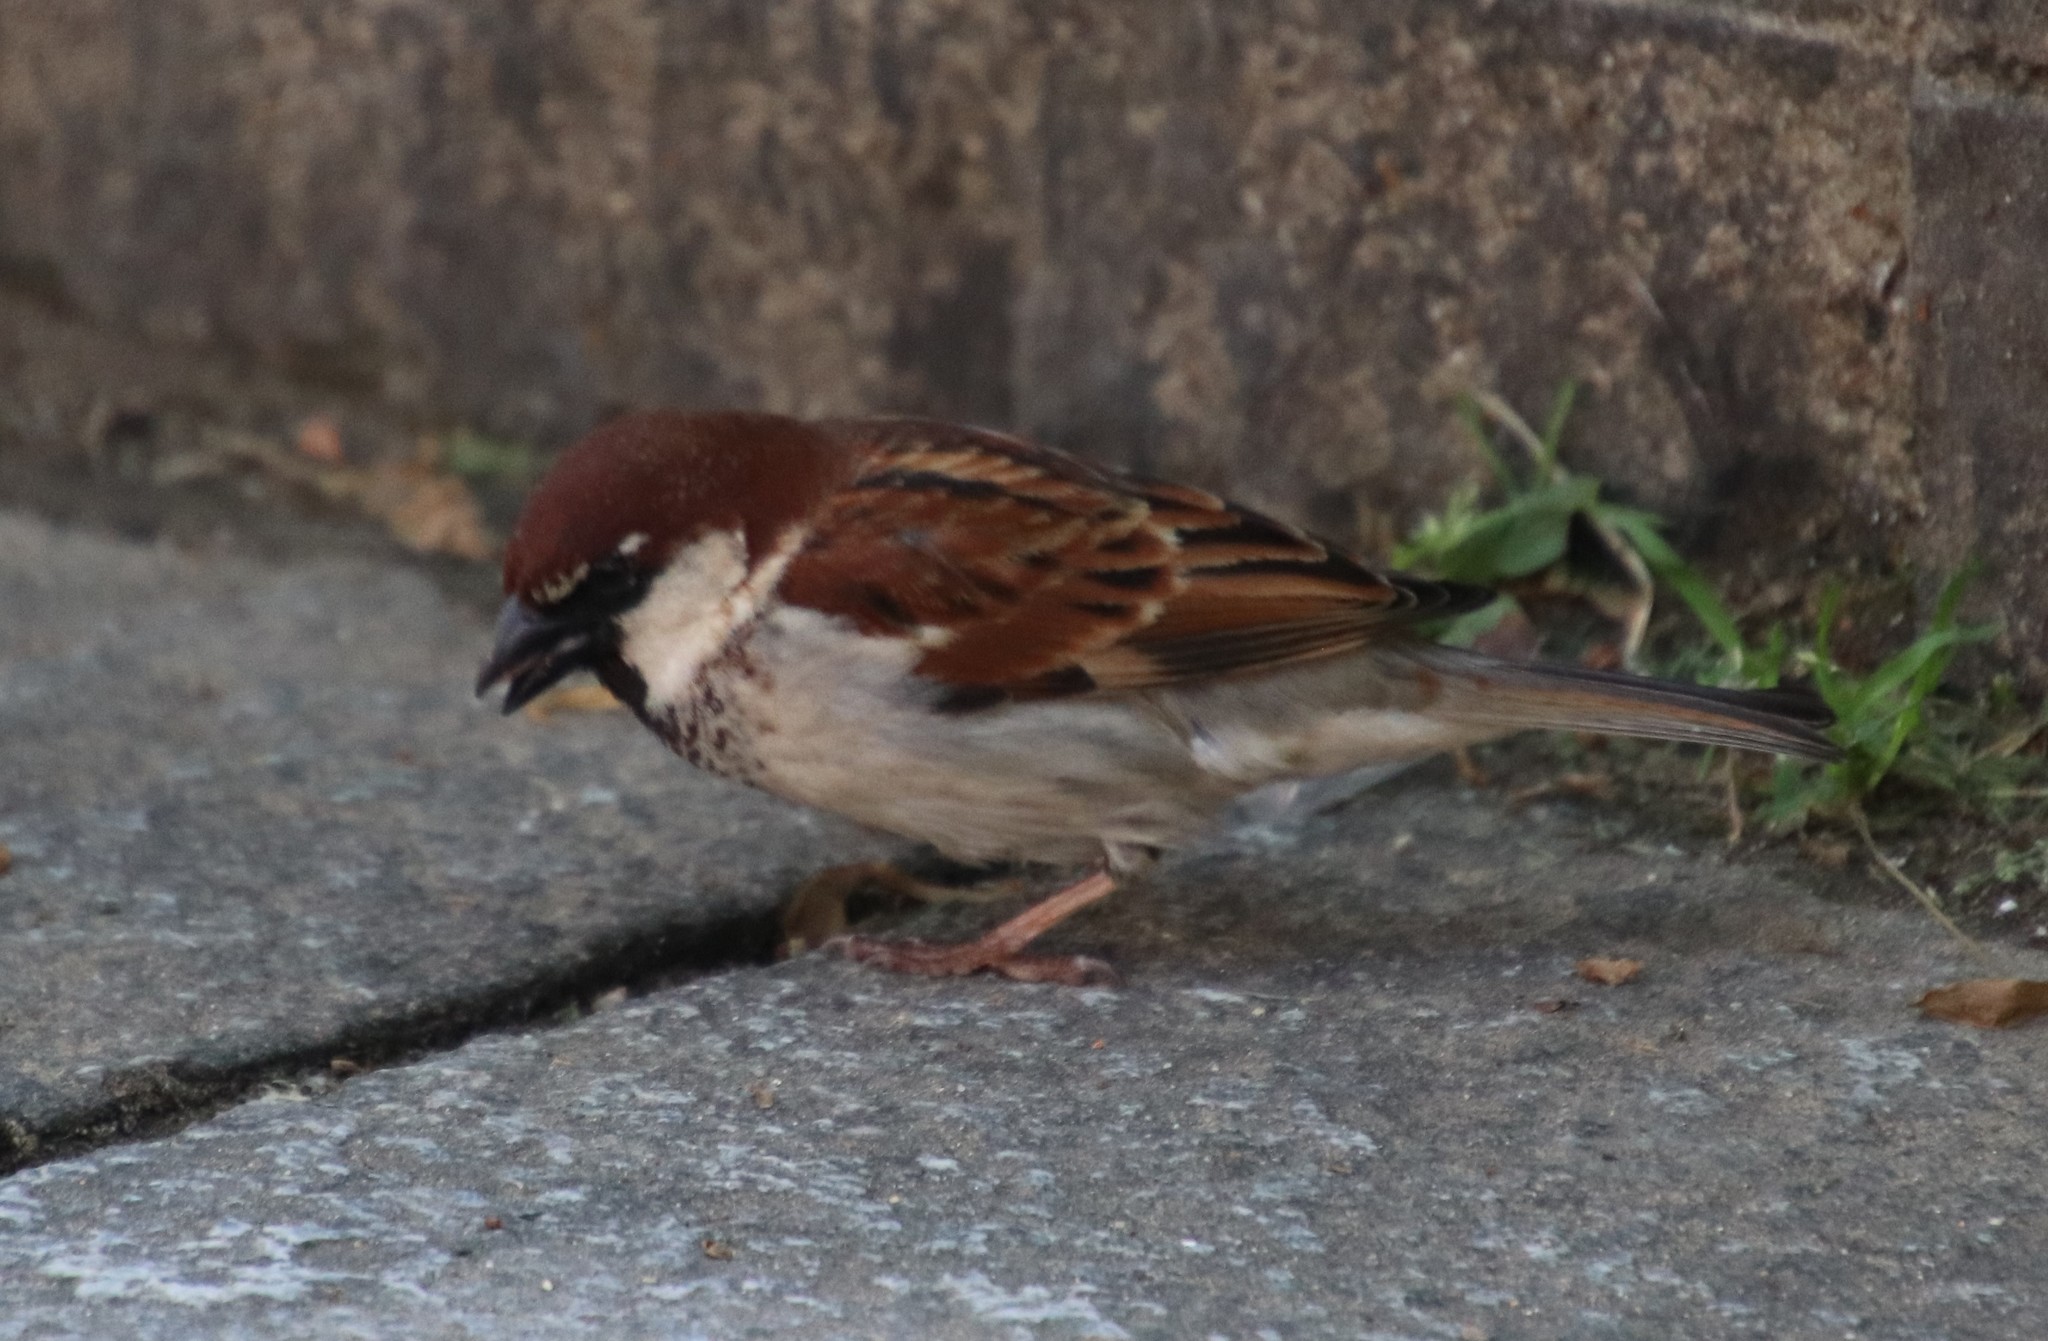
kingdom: Animalia
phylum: Chordata
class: Aves
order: Passeriformes
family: Passeridae
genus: Passer
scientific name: Passer italiae
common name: Italian sparrow
